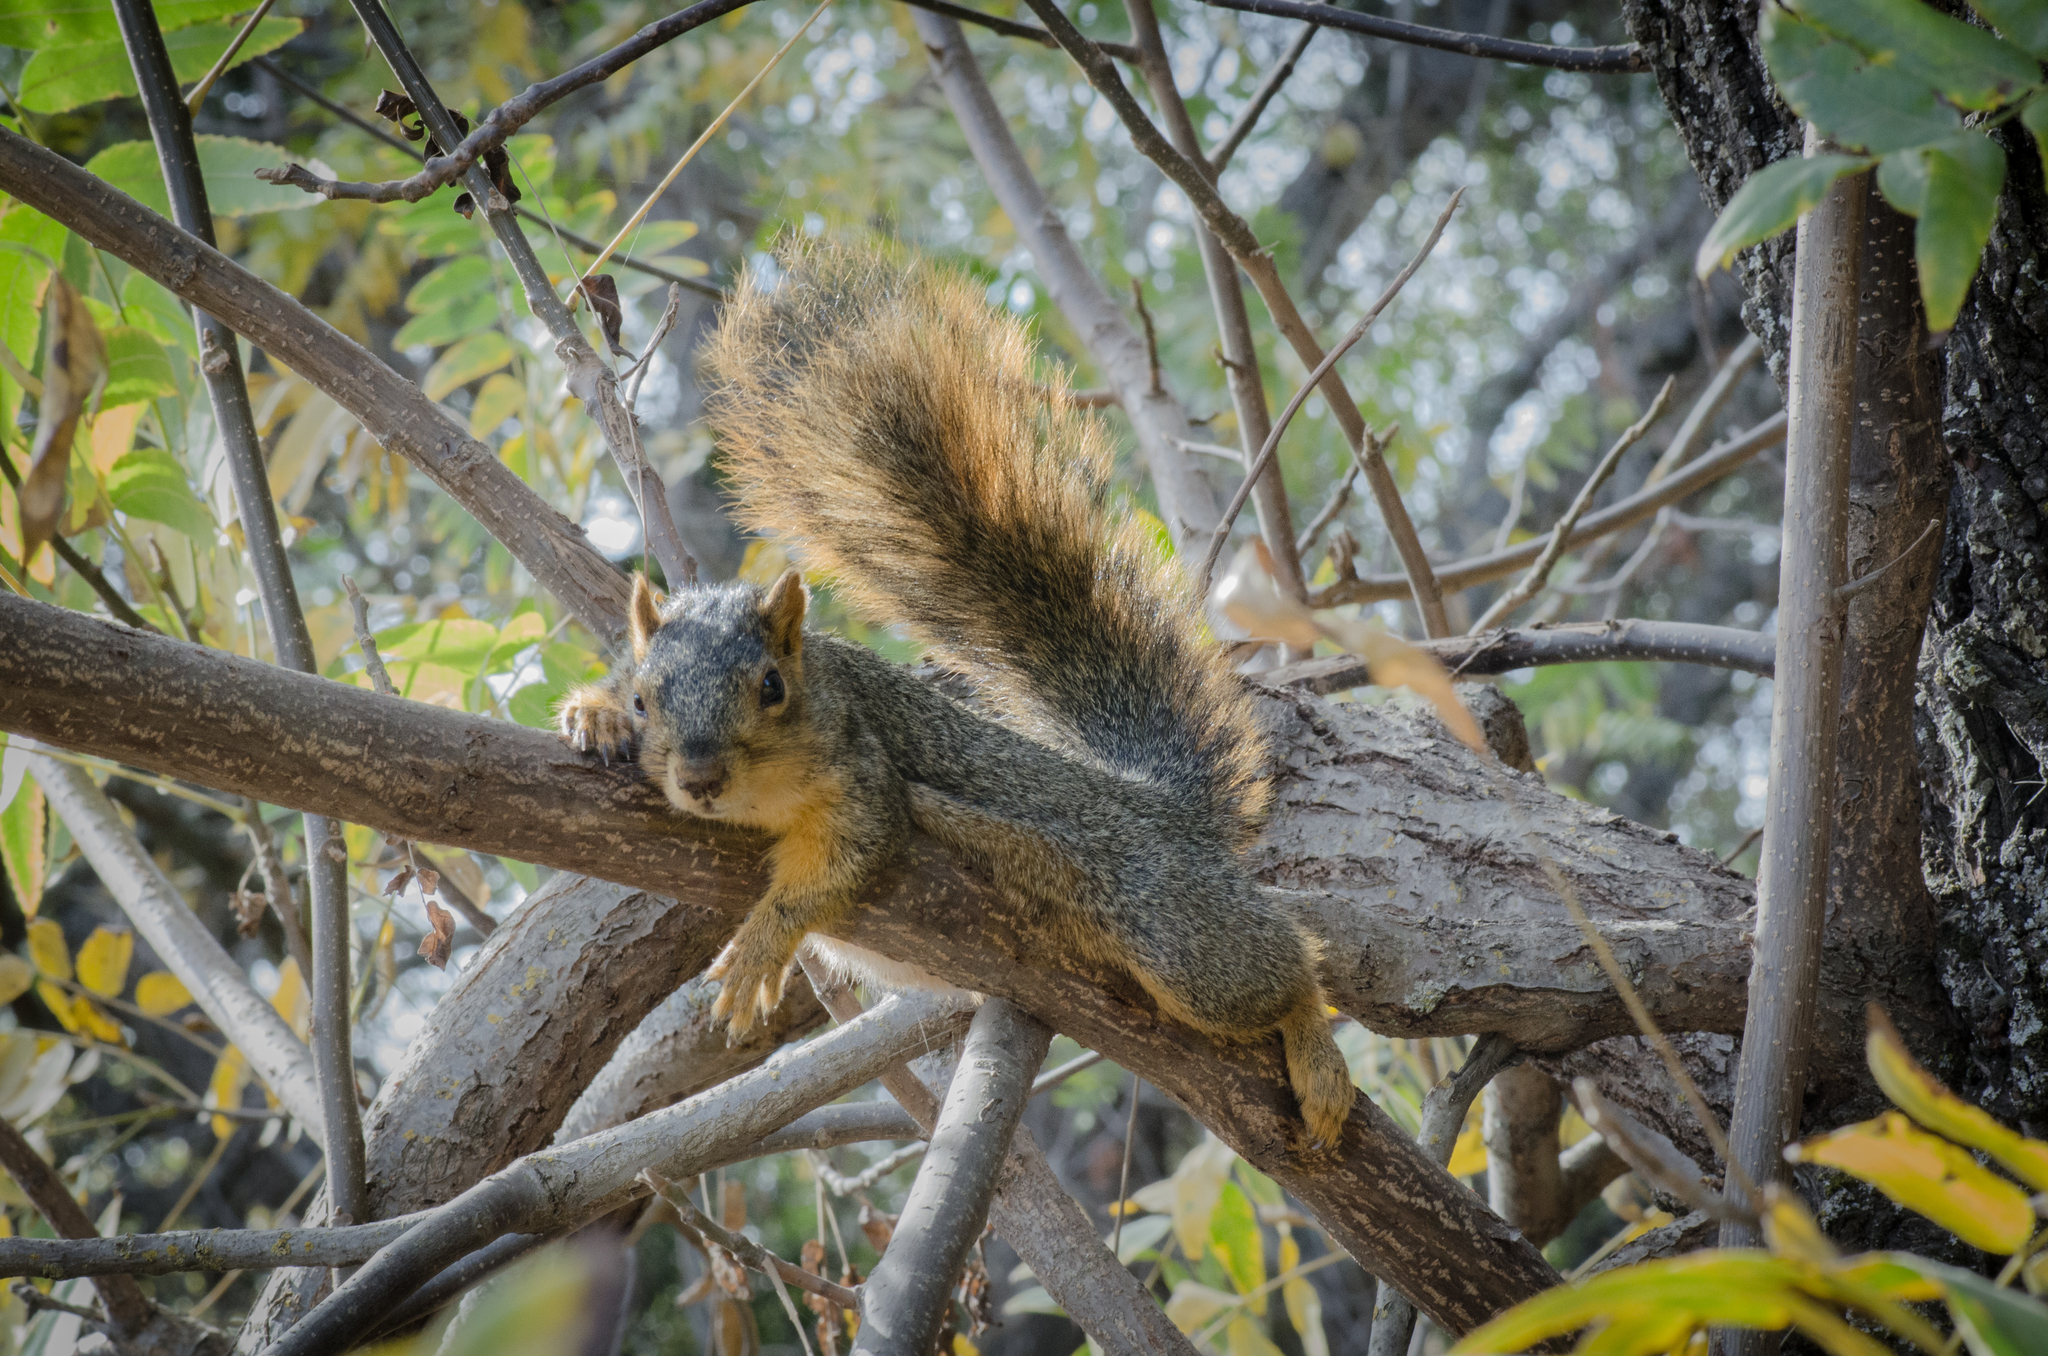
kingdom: Animalia
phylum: Chordata
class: Mammalia
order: Rodentia
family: Sciuridae
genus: Sciurus
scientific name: Sciurus niger
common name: Fox squirrel
